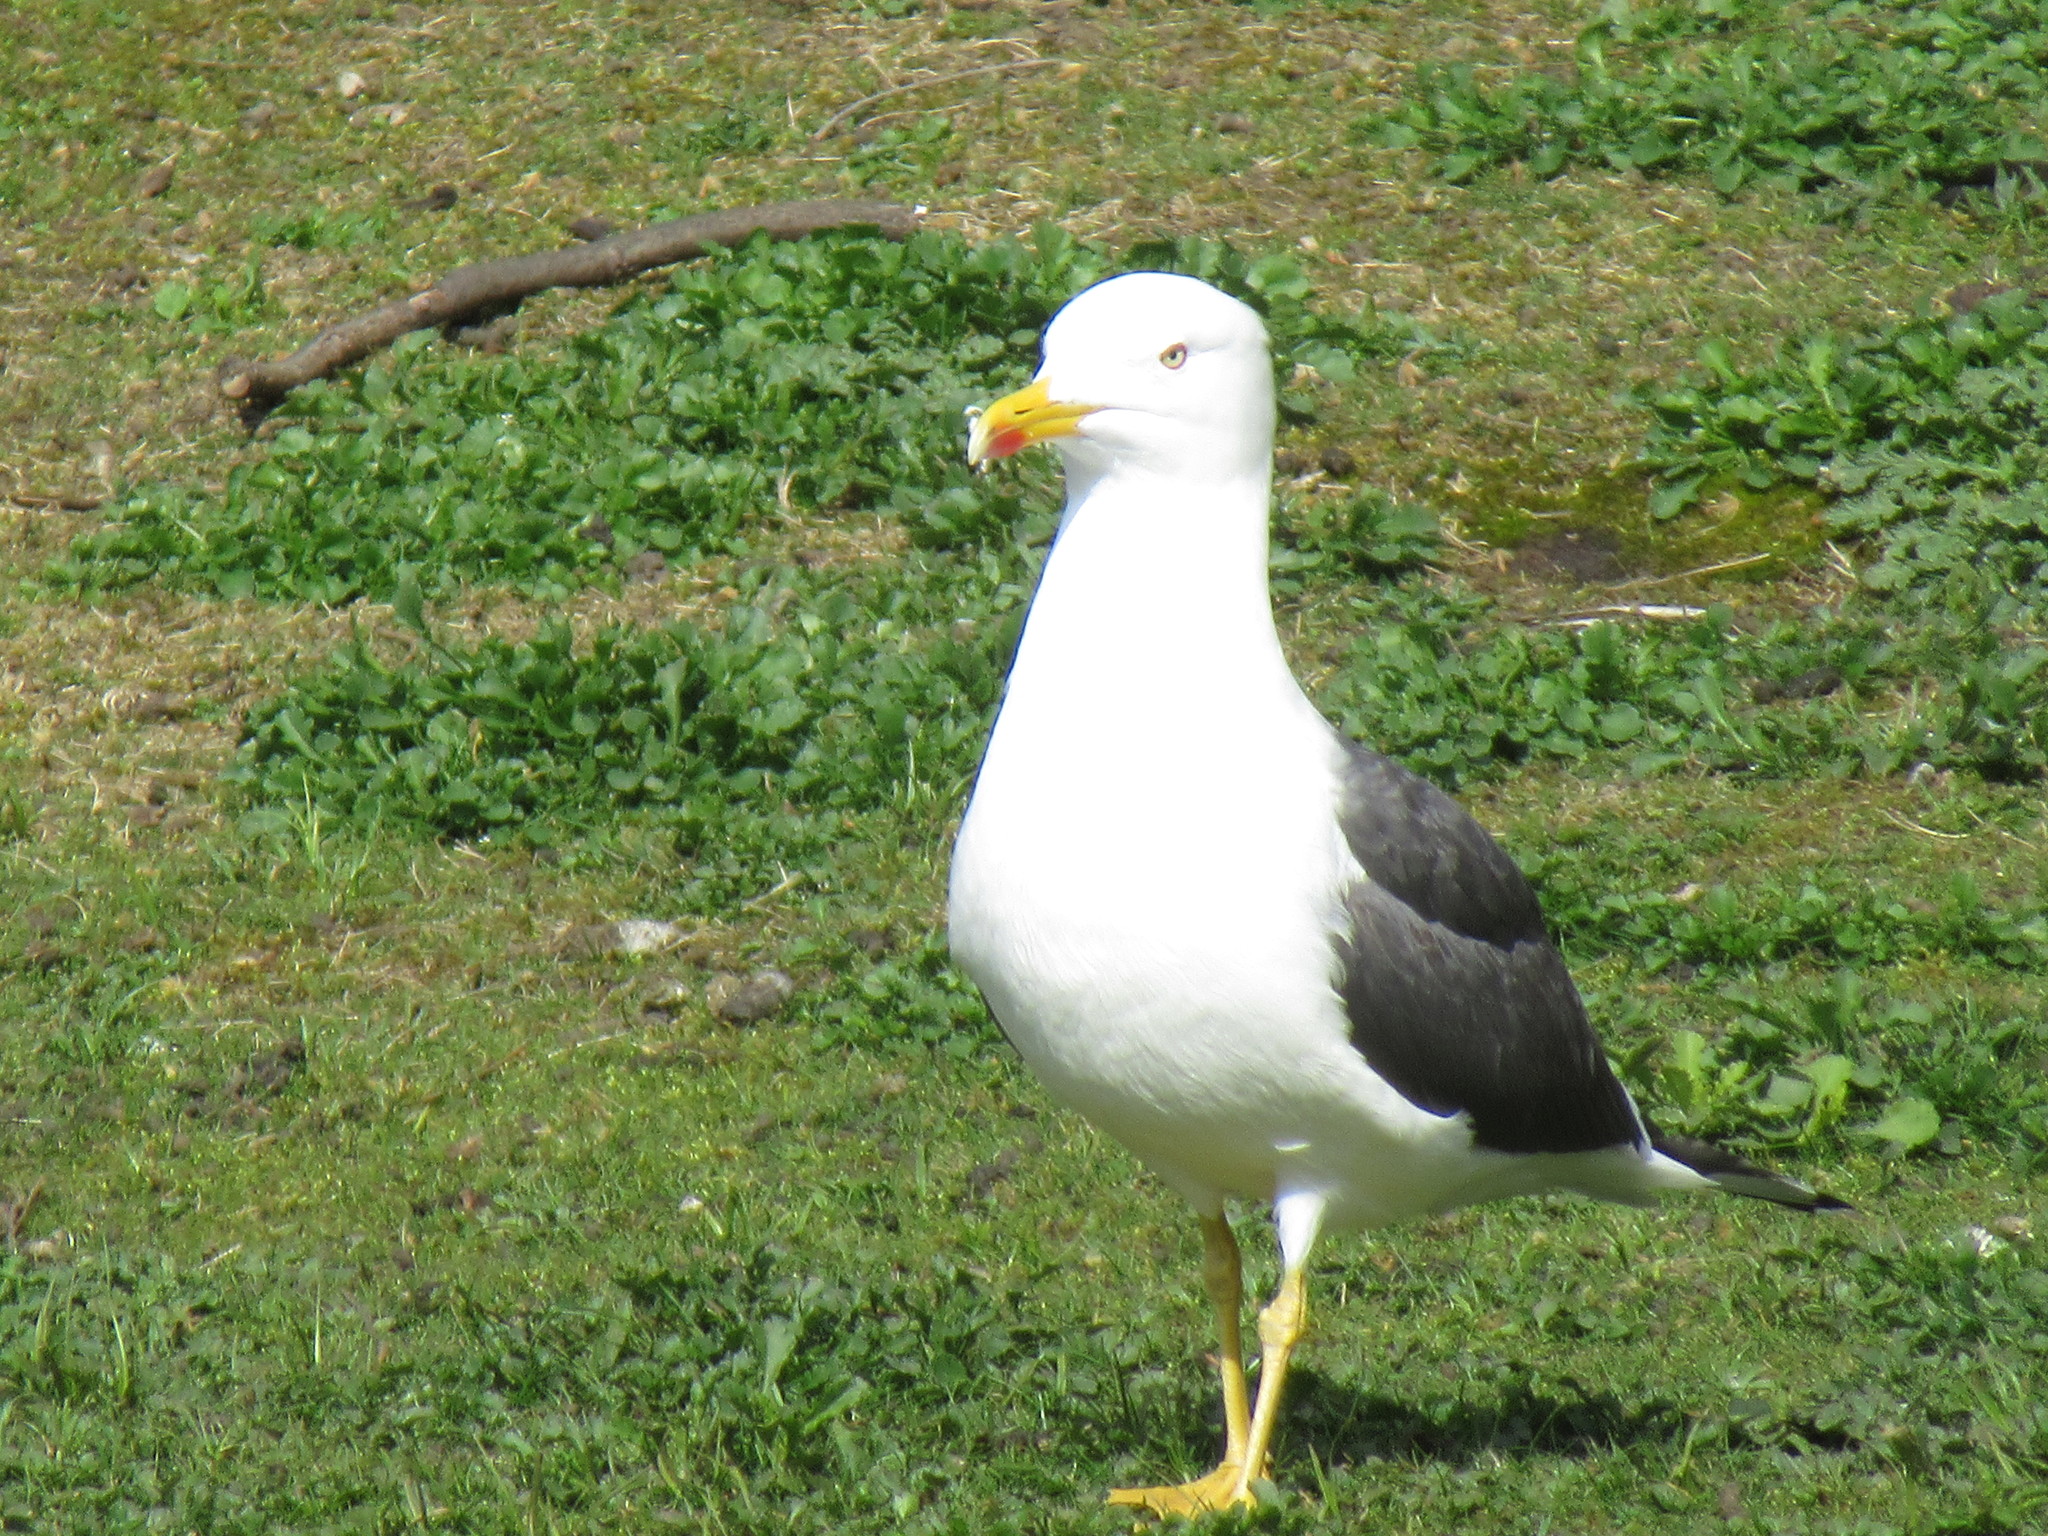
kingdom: Animalia
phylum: Chordata
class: Aves
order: Charadriiformes
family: Laridae
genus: Larus
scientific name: Larus fuscus
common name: Lesser black-backed gull
